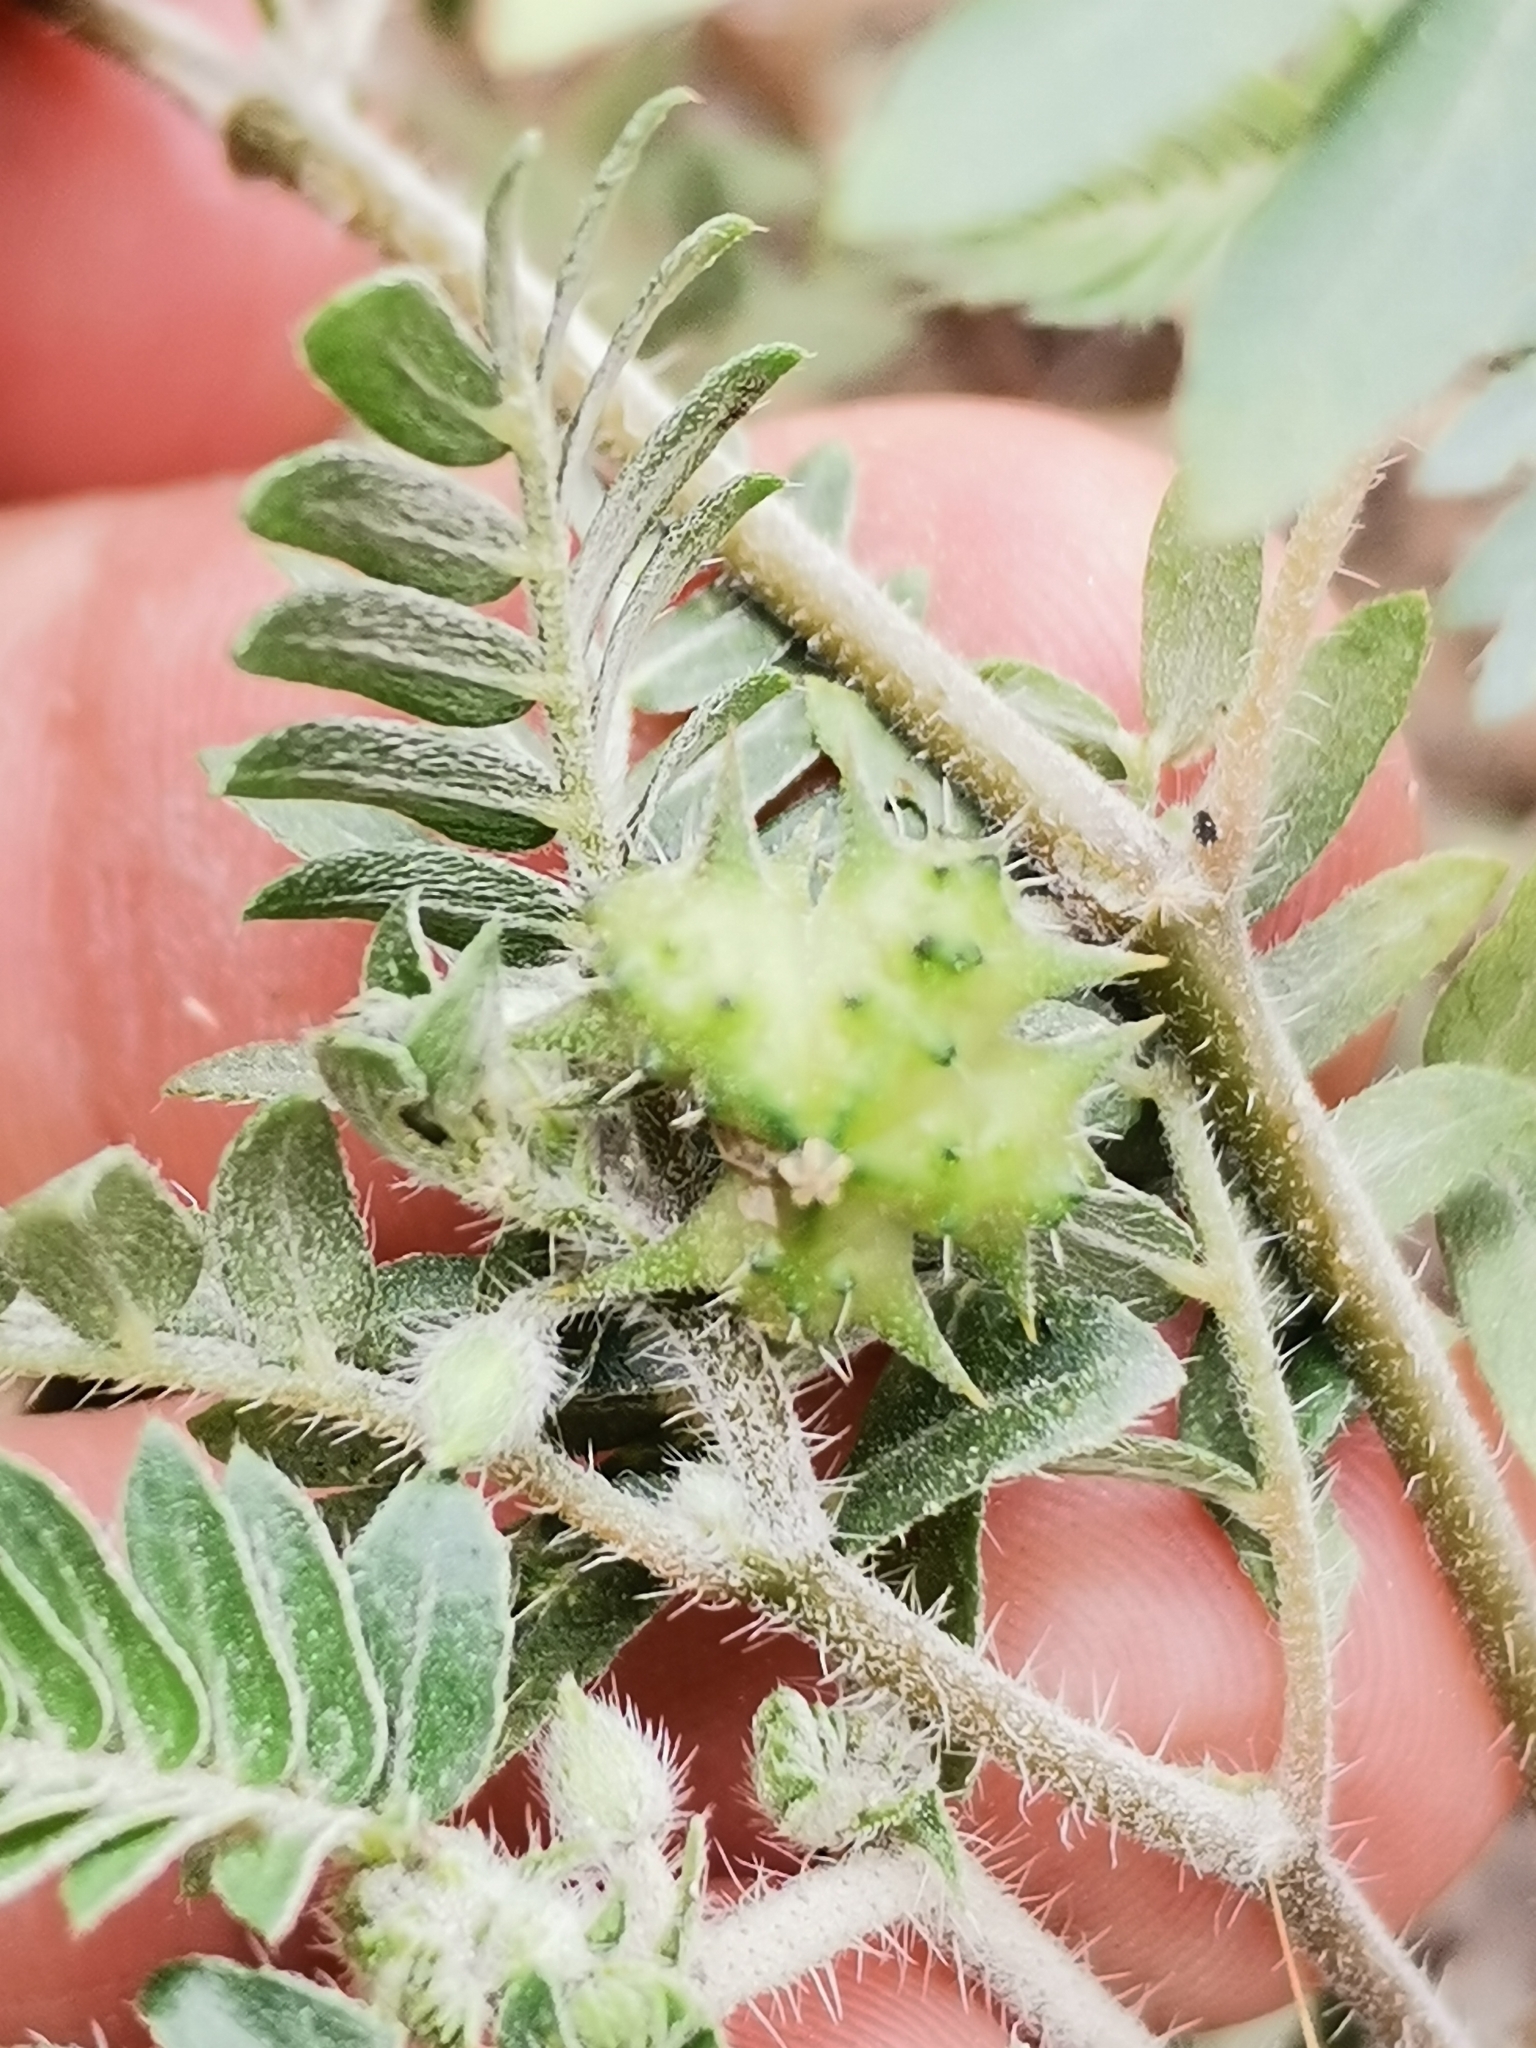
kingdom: Plantae
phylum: Tracheophyta
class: Magnoliopsida
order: Zygophyllales
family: Zygophyllaceae
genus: Tribulus
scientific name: Tribulus terrestris
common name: Puncturevine
